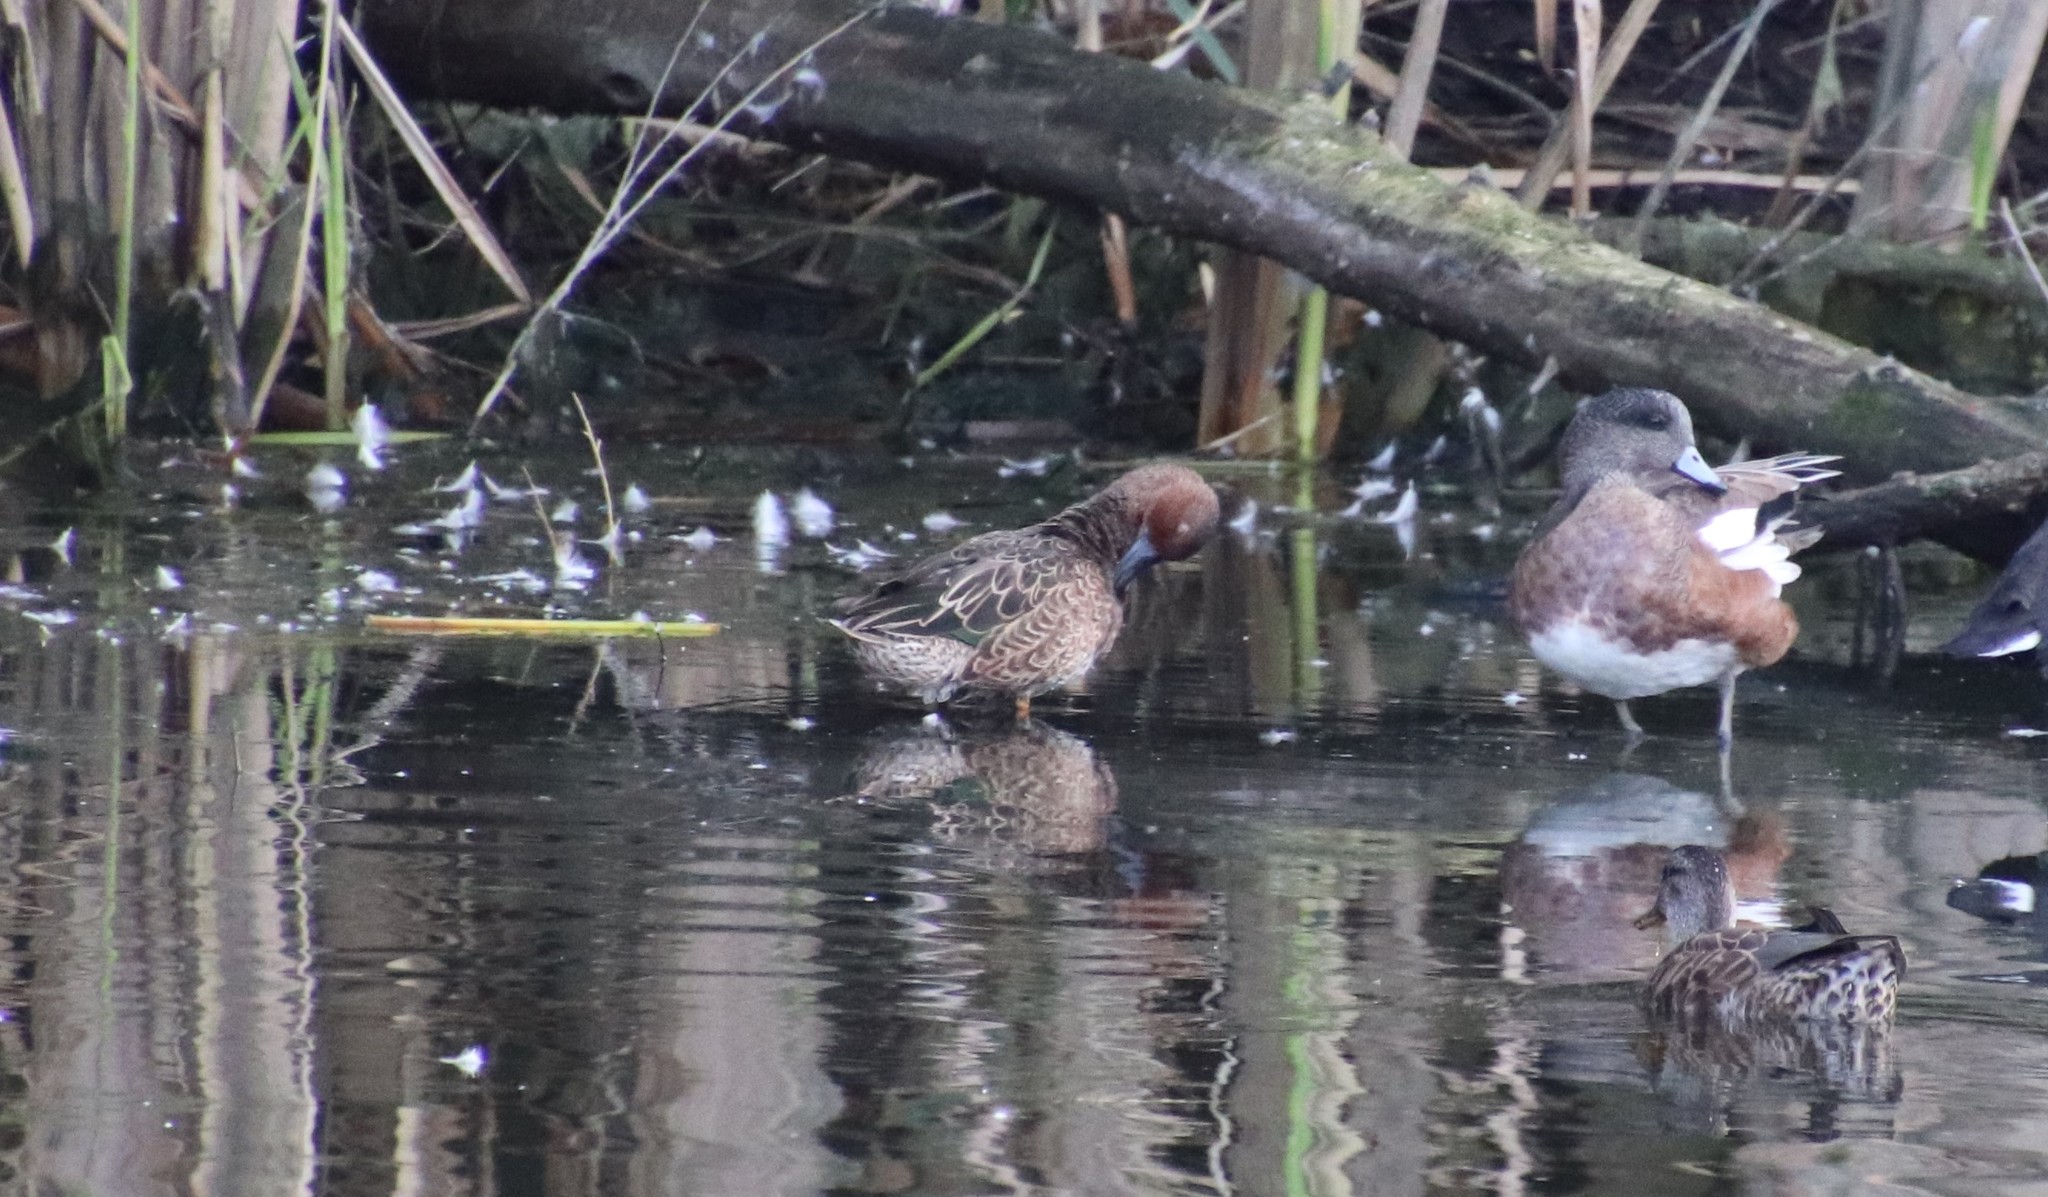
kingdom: Animalia
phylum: Chordata
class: Aves
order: Anseriformes
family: Anatidae
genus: Spatula
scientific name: Spatula cyanoptera
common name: Cinnamon teal
